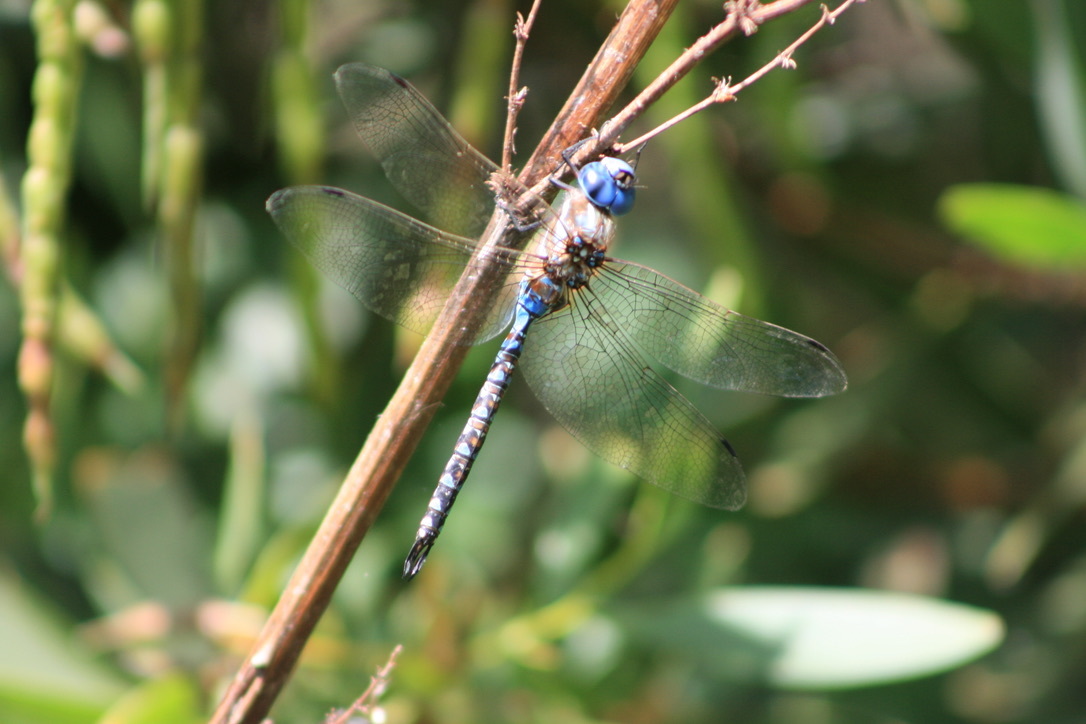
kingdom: Animalia
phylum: Arthropoda
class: Insecta
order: Odonata
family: Aeshnidae
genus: Rhionaeschna
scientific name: Rhionaeschna multicolor
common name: Blue-eyed darner
